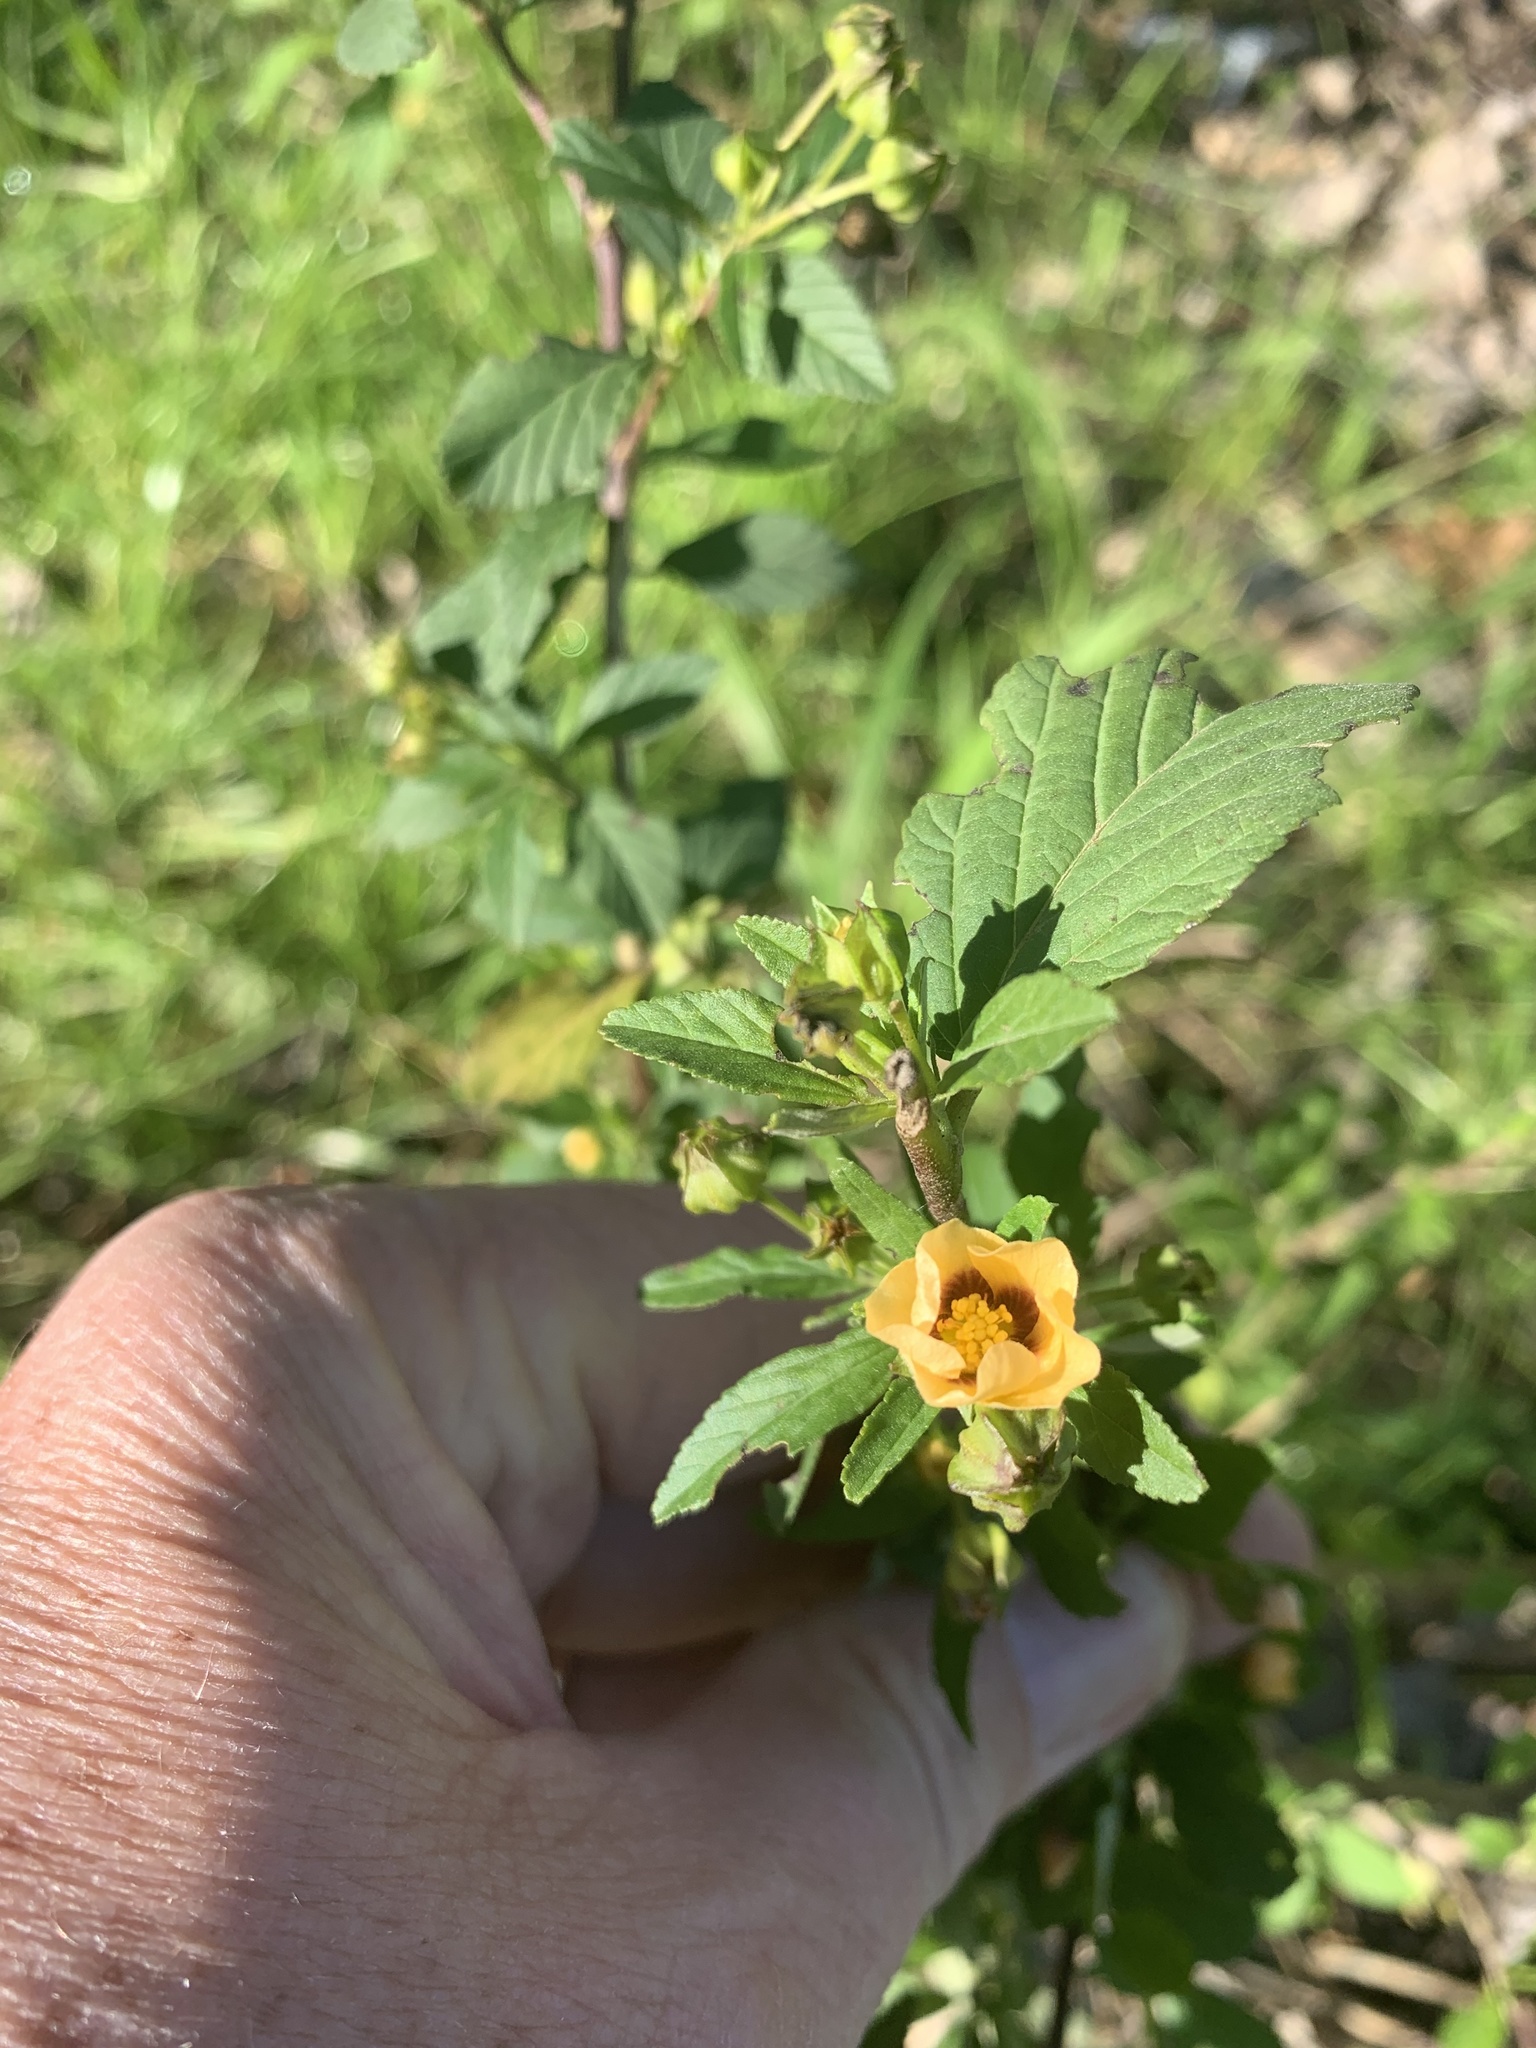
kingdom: Plantae
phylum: Tracheophyta
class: Magnoliopsida
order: Malvales
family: Malvaceae
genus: Sida
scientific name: Sida rhombifolia
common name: Queensland-hemp
